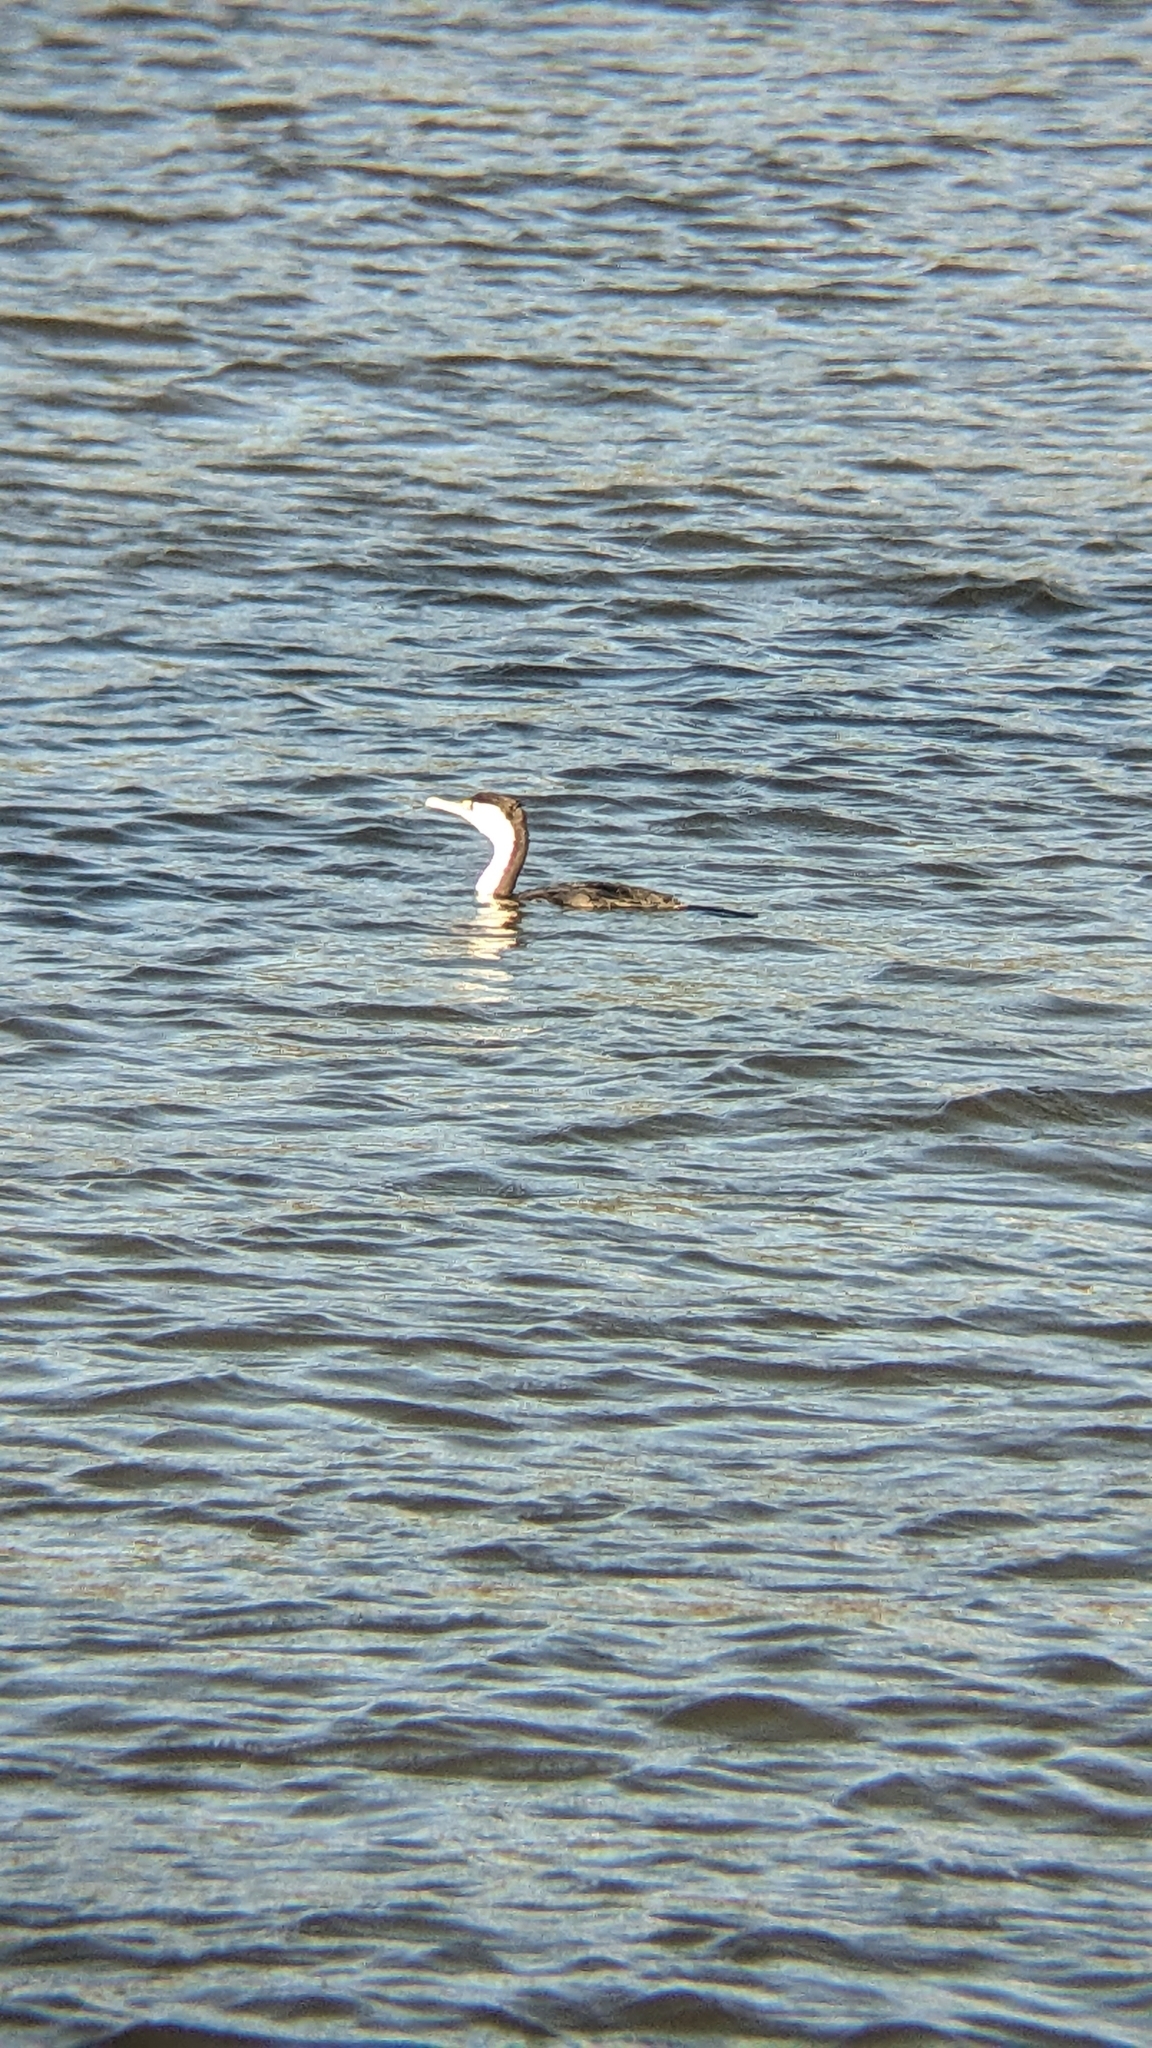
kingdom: Animalia
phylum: Chordata
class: Aves
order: Suliformes
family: Phalacrocoracidae
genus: Phalacrocorax
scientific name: Phalacrocorax varius
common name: Pied cormorant
